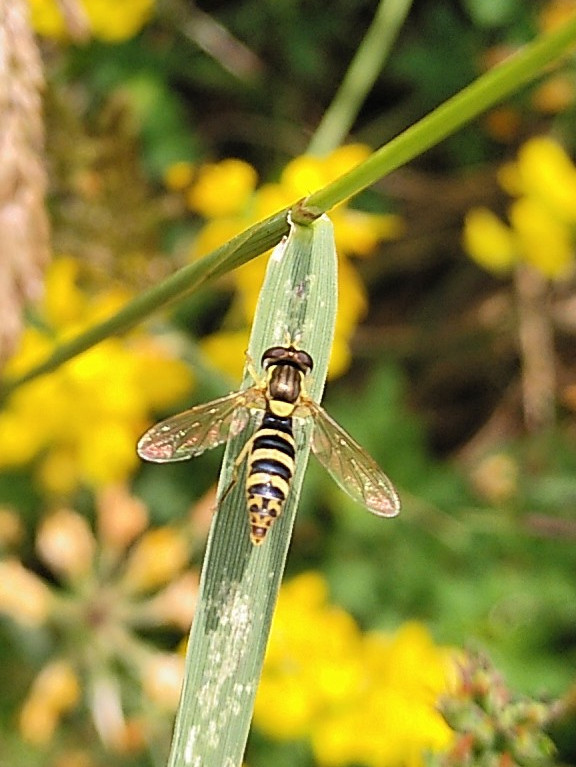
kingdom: Animalia
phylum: Arthropoda
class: Insecta
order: Diptera
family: Syrphidae
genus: Sphaerophoria
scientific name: Sphaerophoria
